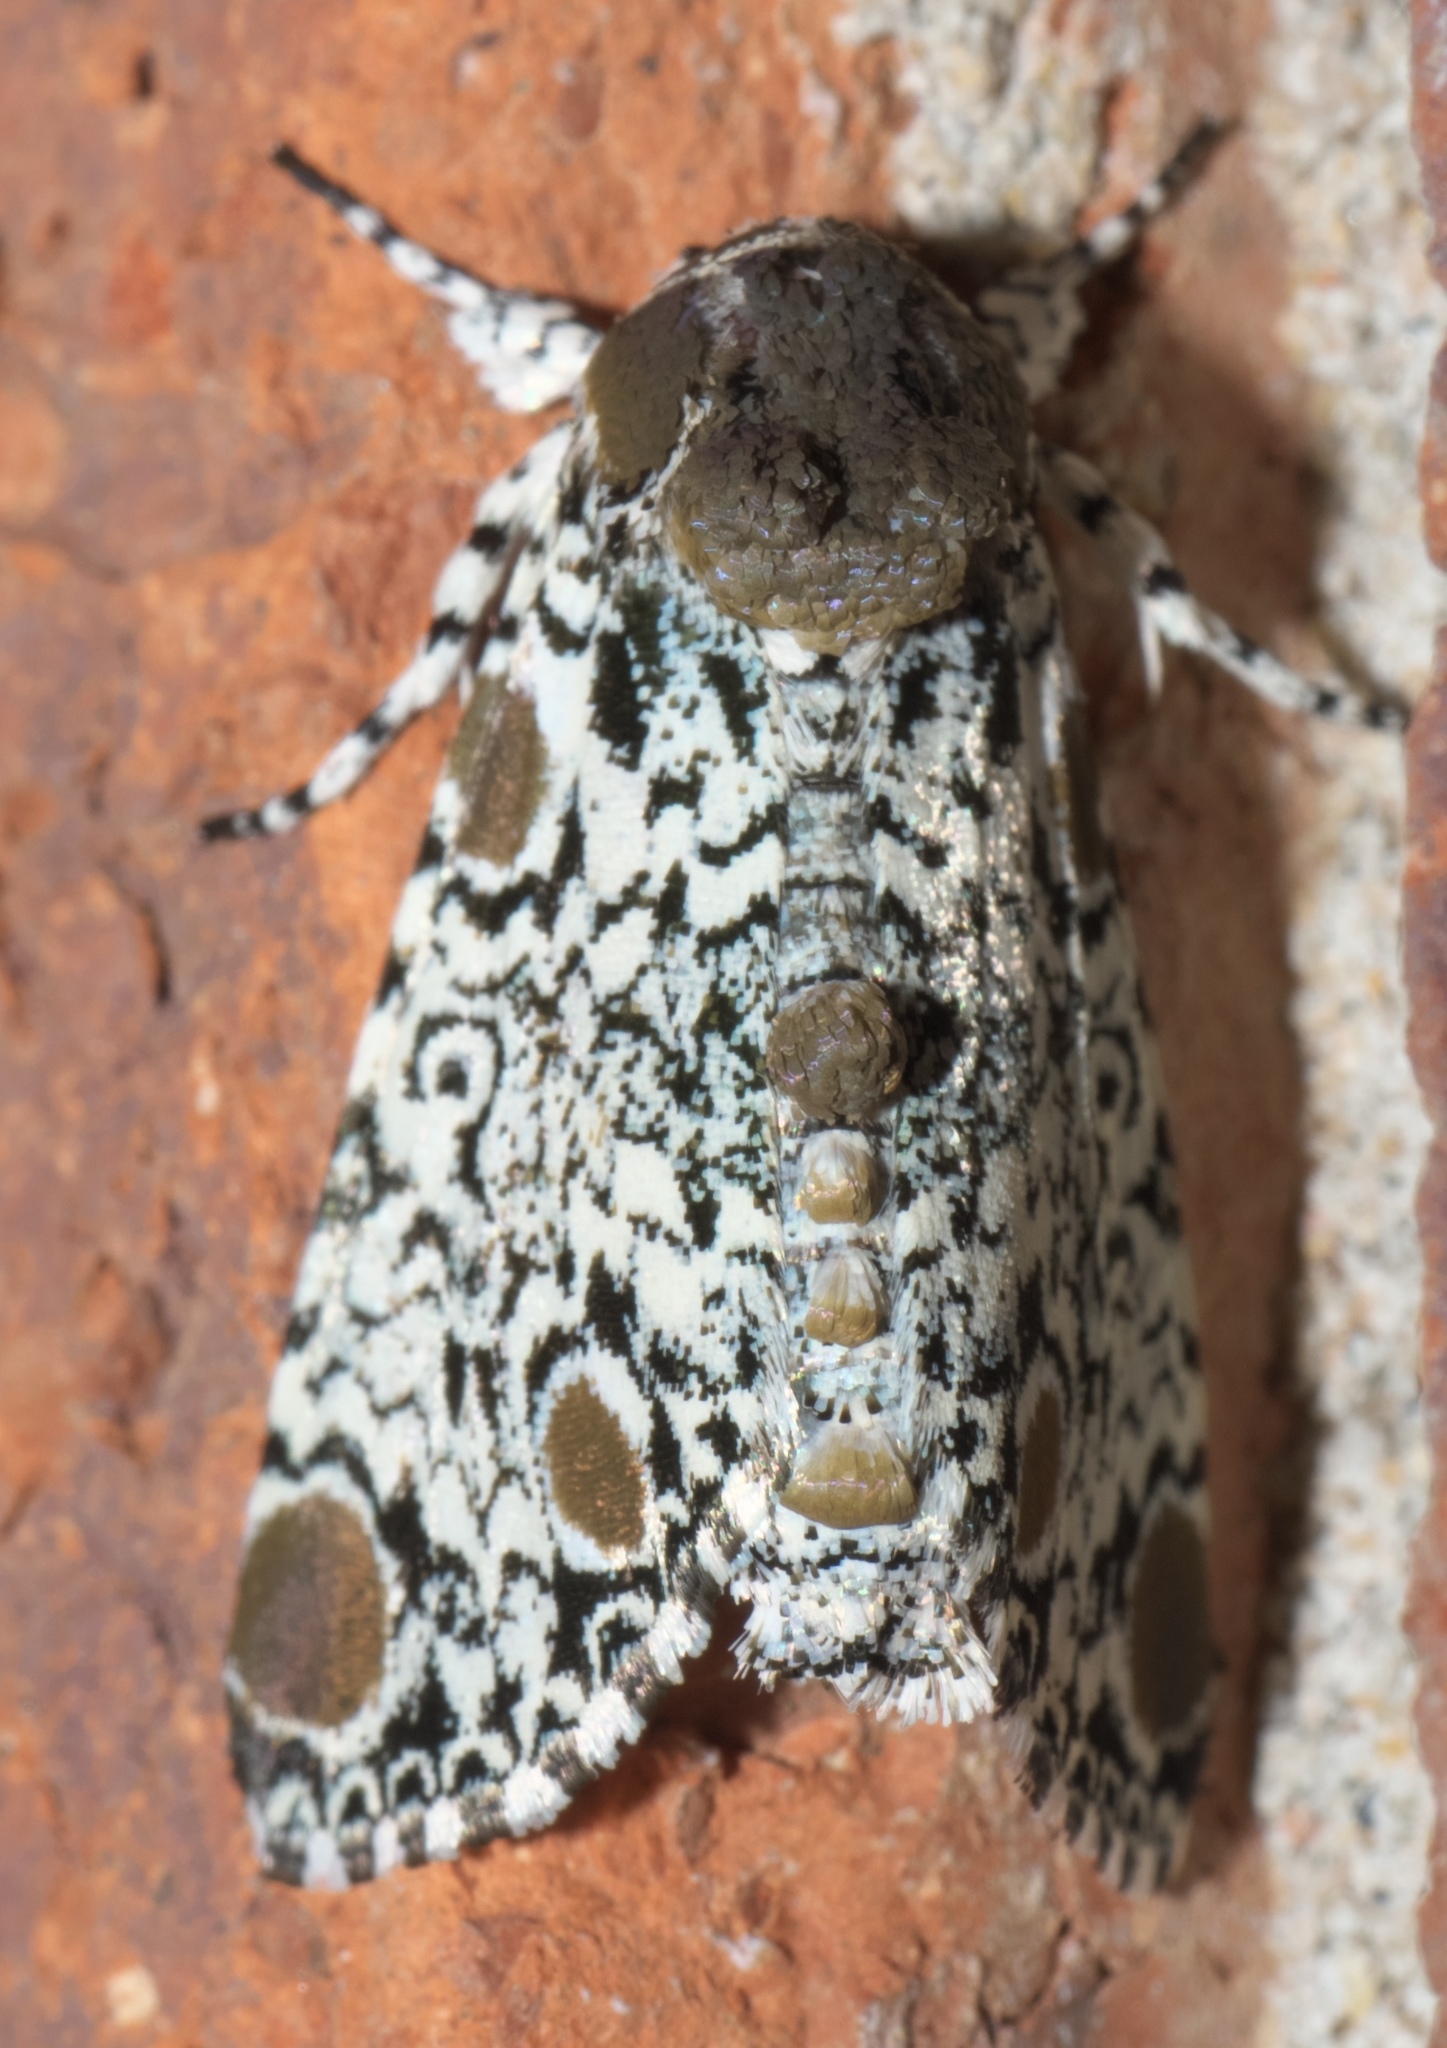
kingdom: Animalia
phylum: Arthropoda
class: Insecta
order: Lepidoptera
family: Noctuidae
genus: Harrisimemna
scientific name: Harrisimemna trisignata
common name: Harris threespot
